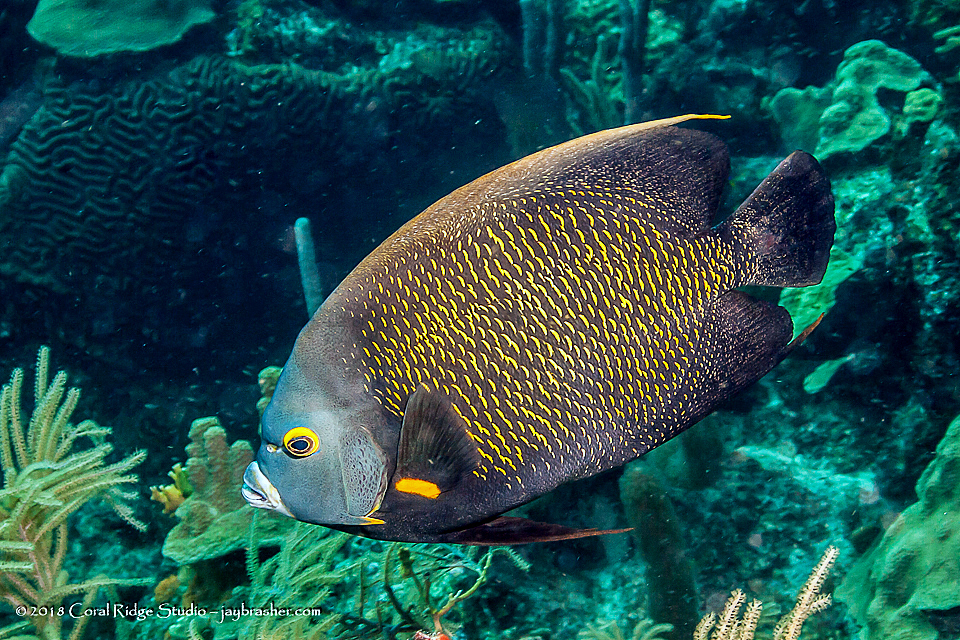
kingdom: Animalia
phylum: Chordata
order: Perciformes
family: Pomacanthidae
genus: Pomacanthus
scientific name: Pomacanthus paru
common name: French angelfish
